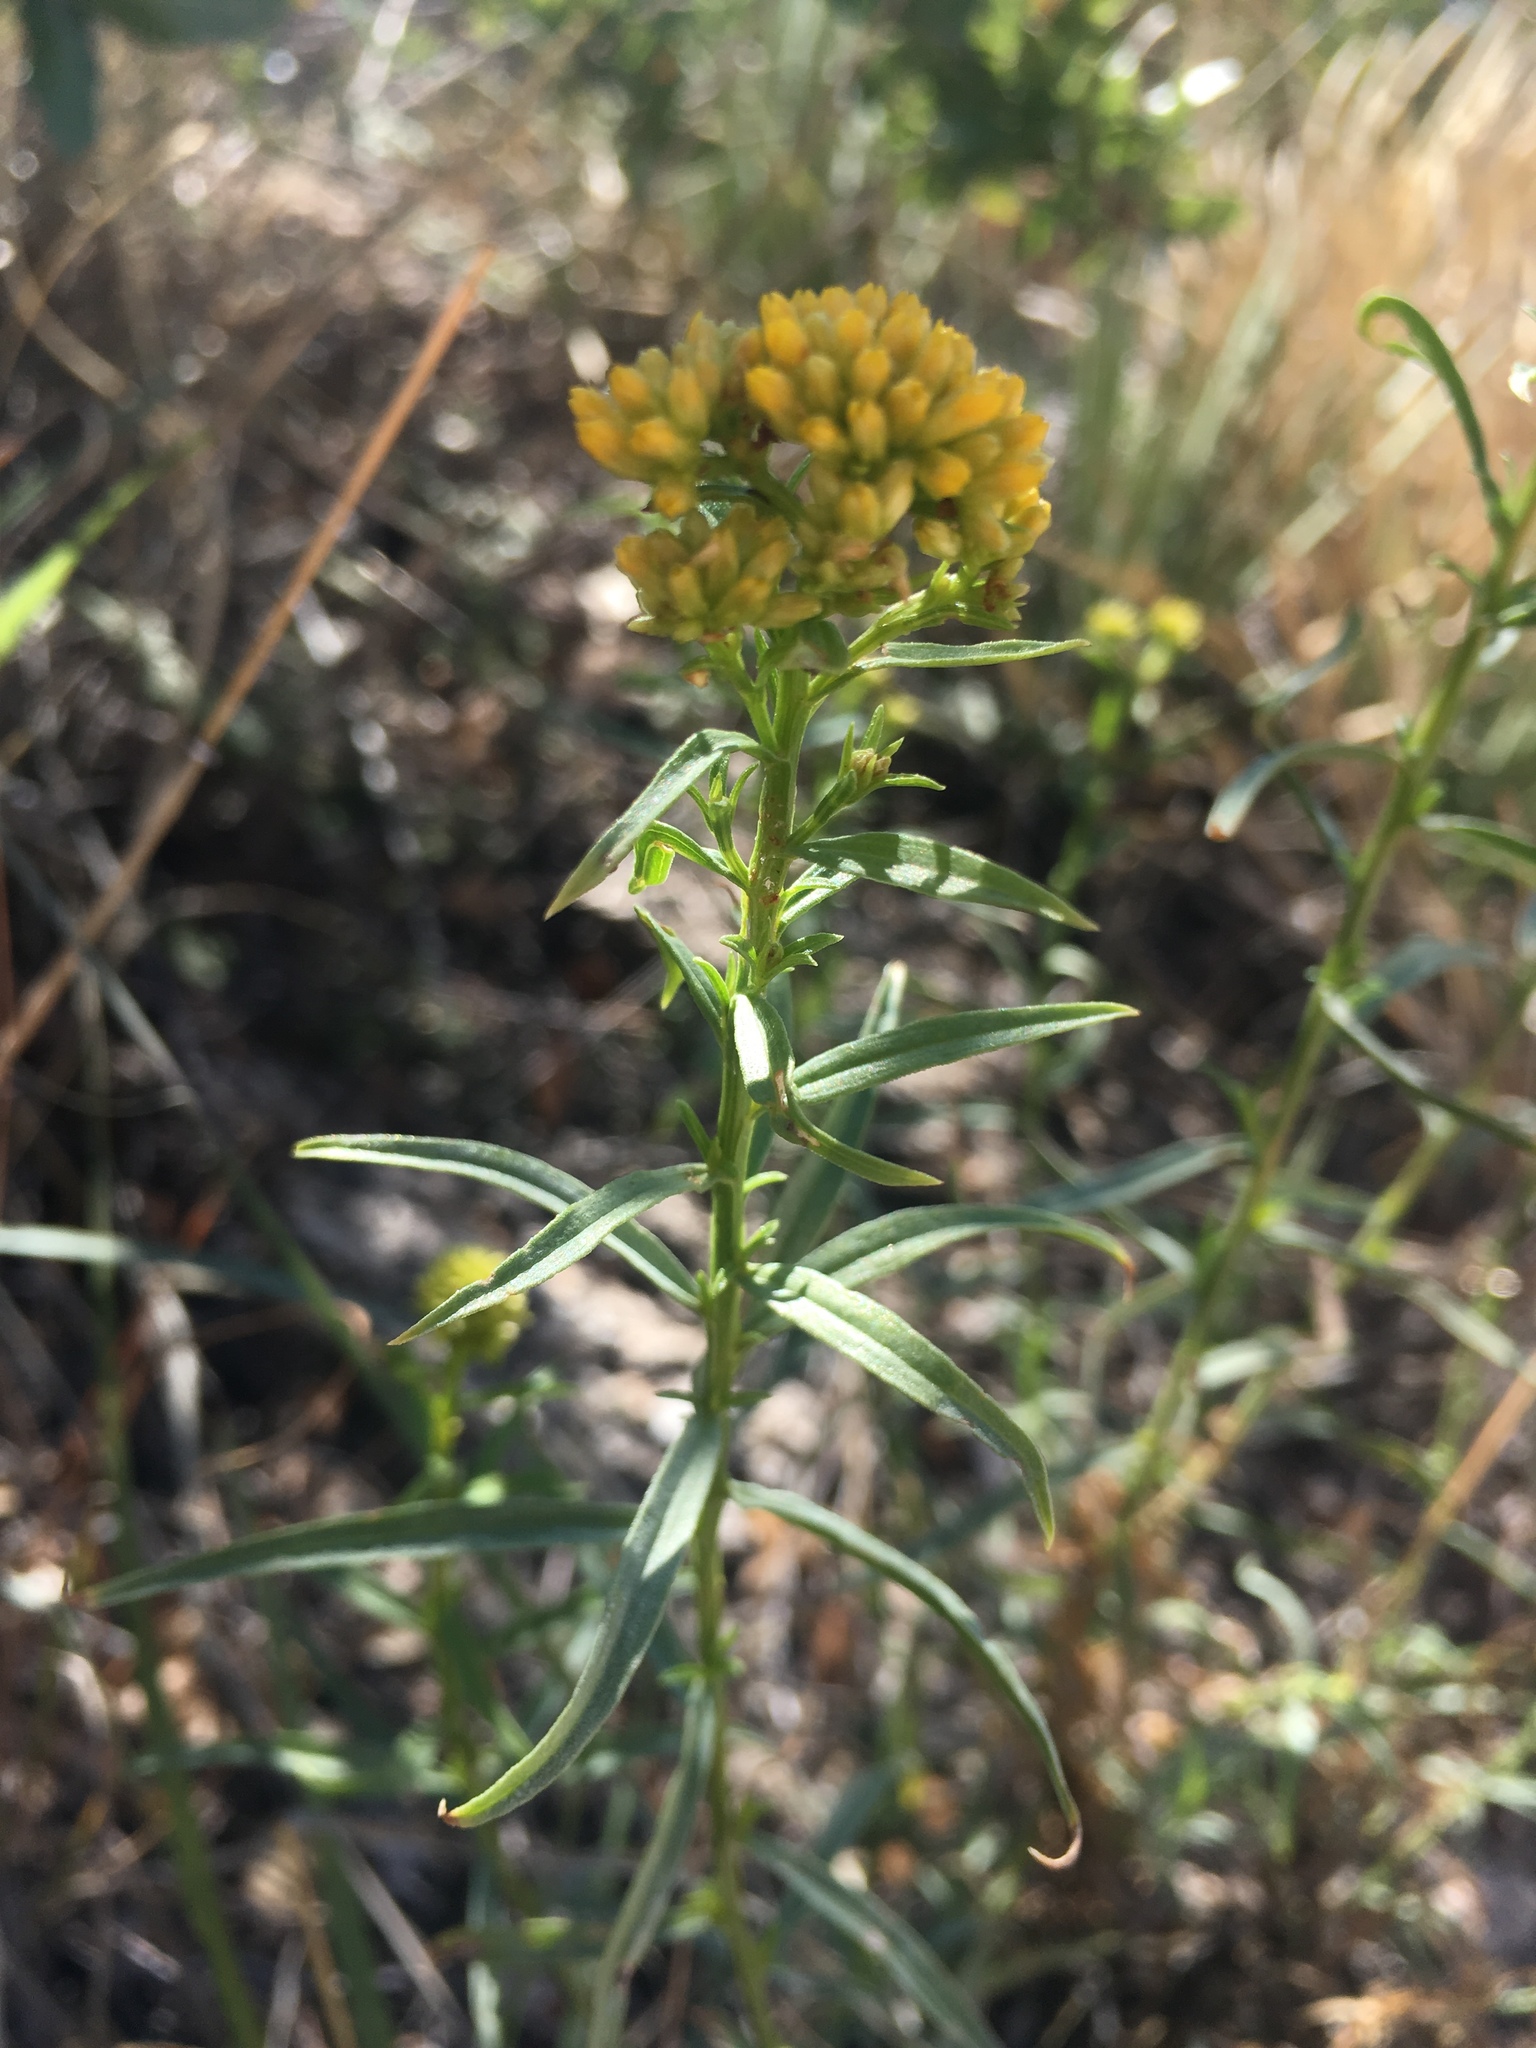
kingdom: Plantae
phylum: Tracheophyta
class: Magnoliopsida
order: Asterales
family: Asteraceae
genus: Gymnosperma
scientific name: Gymnosperma glutinosum
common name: Gumhead
